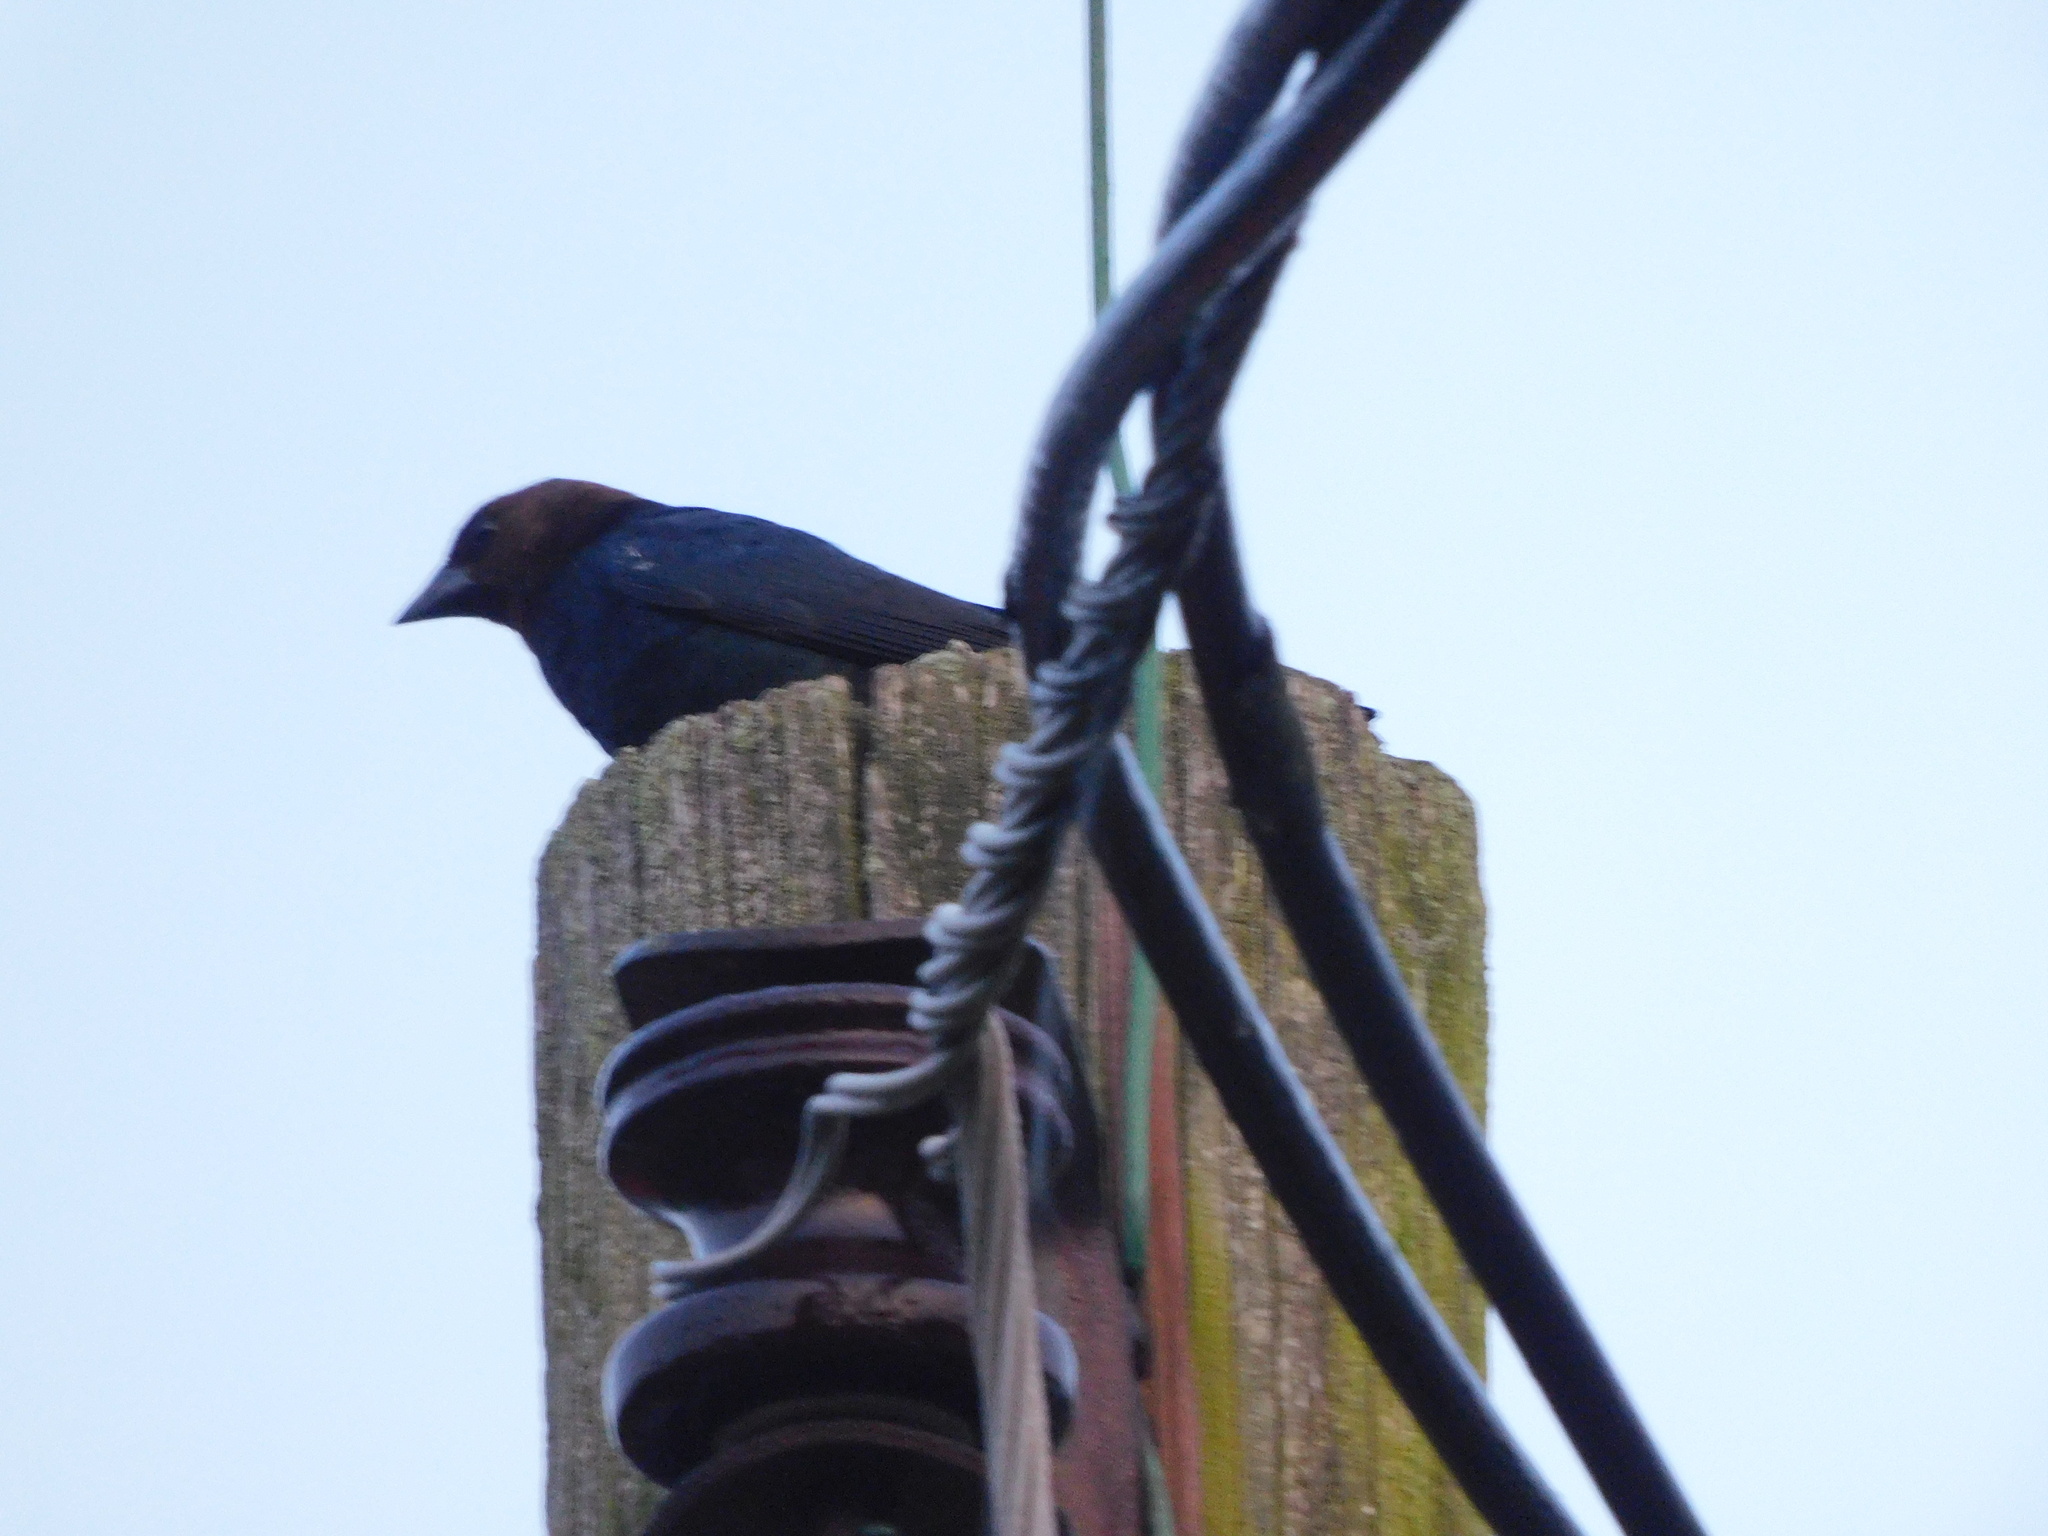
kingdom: Animalia
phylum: Chordata
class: Aves
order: Passeriformes
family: Icteridae
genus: Molothrus
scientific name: Molothrus ater
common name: Brown-headed cowbird
